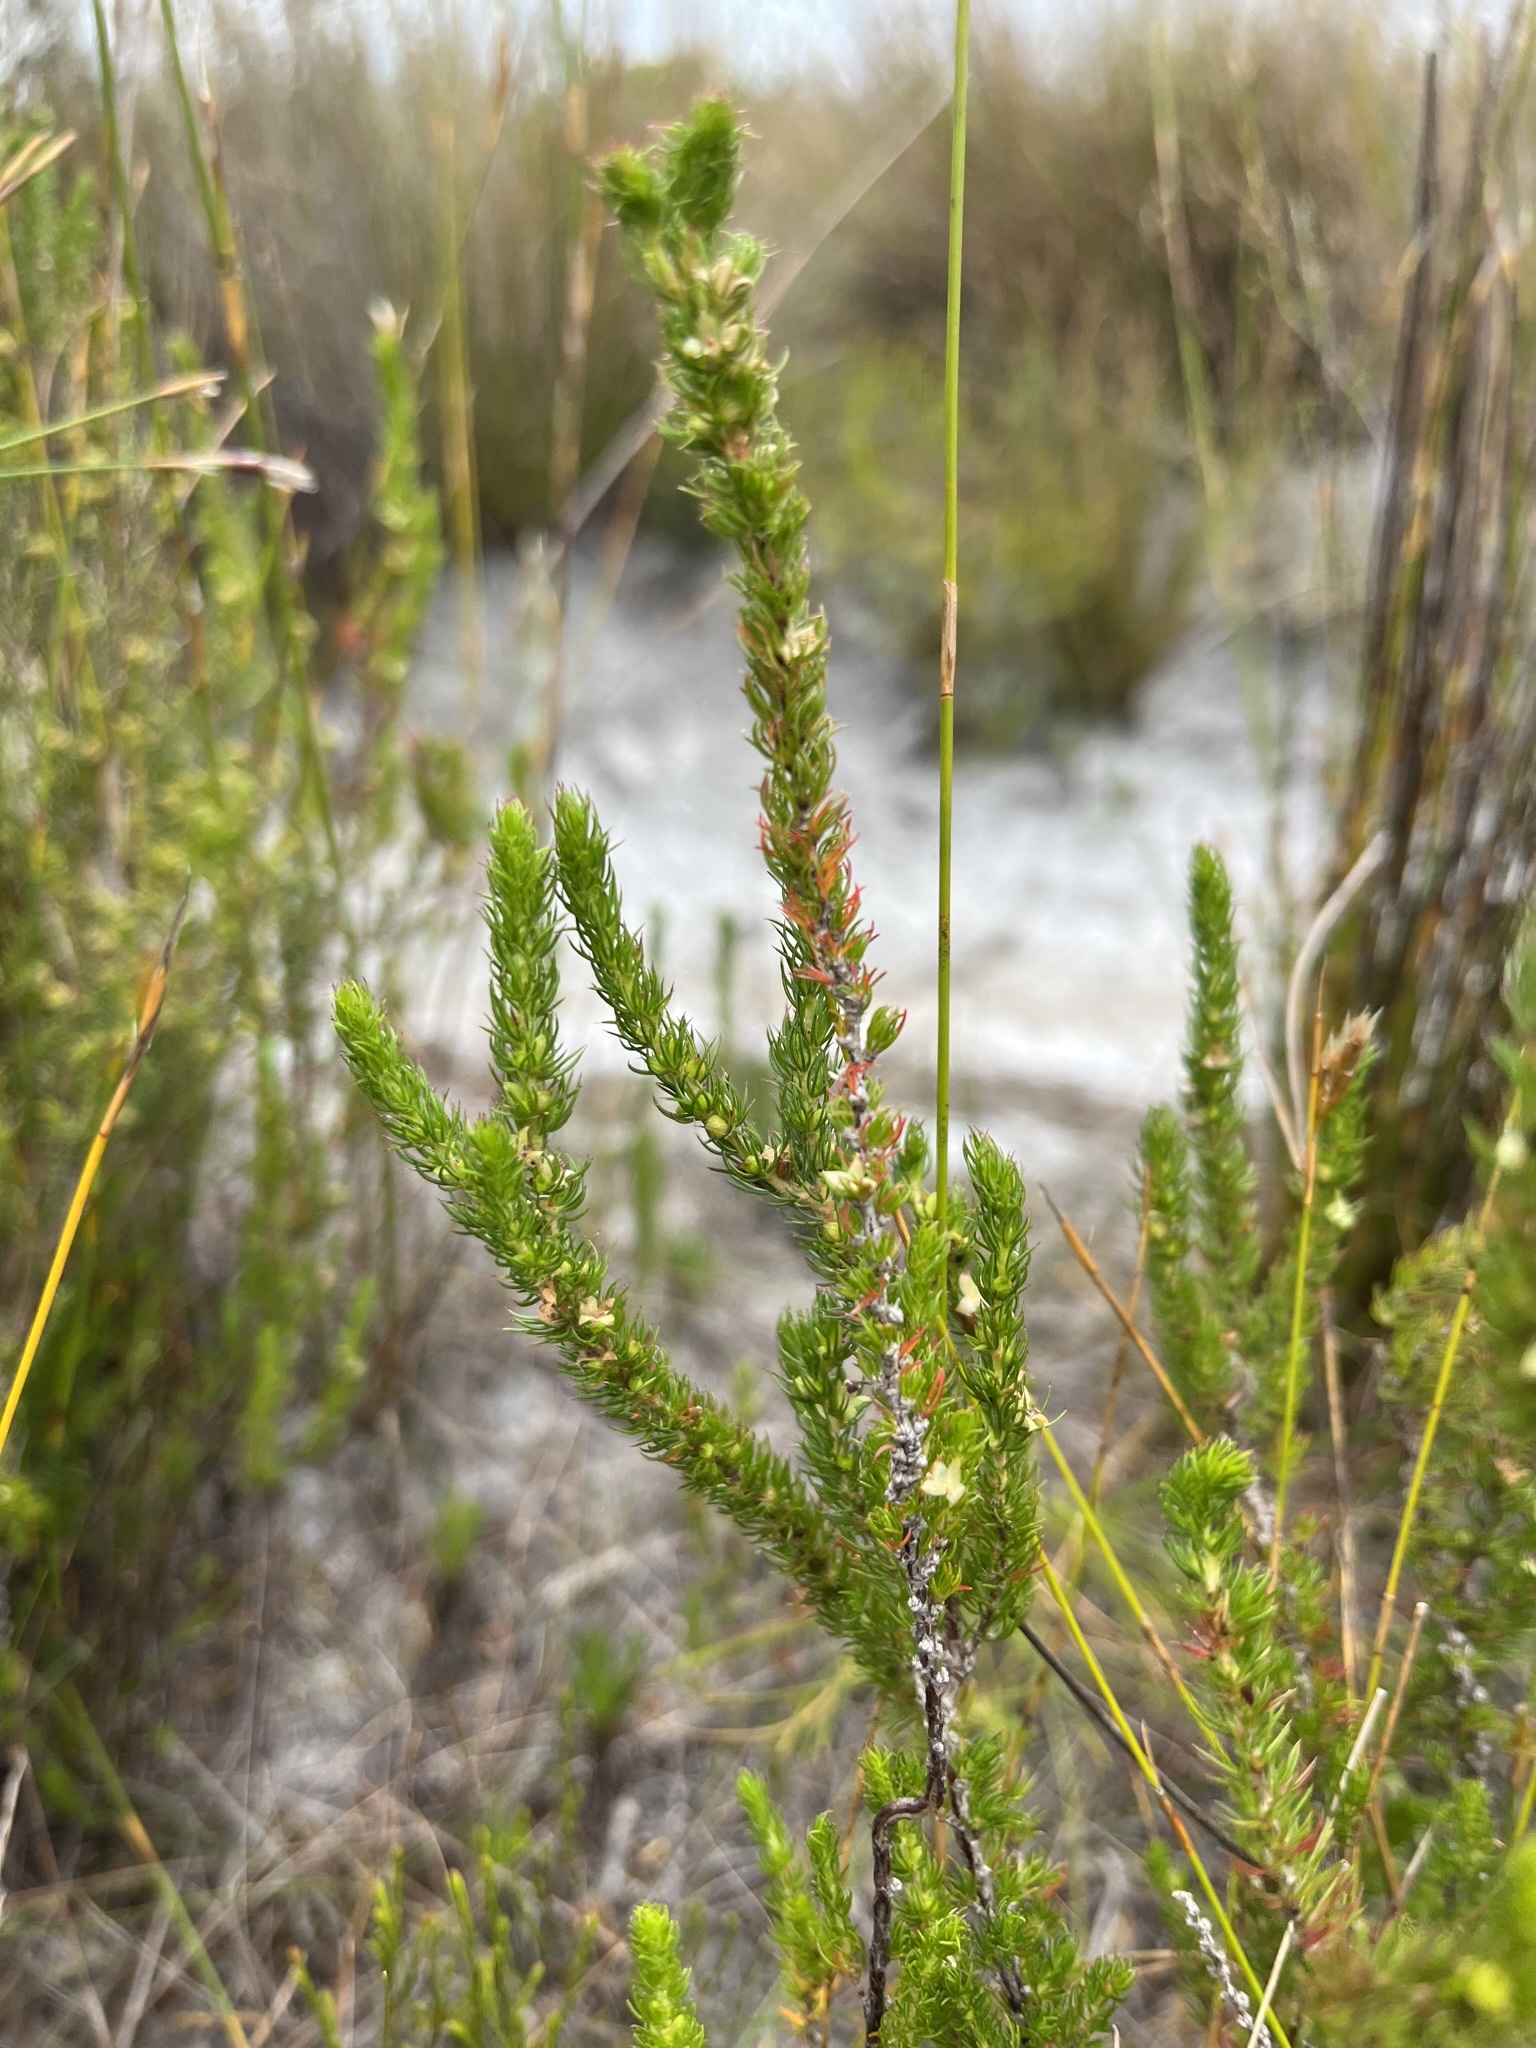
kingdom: Plantae
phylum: Tracheophyta
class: Magnoliopsida
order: Rosales
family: Rosaceae
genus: Cliffortia
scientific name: Cliffortia subsetacea
